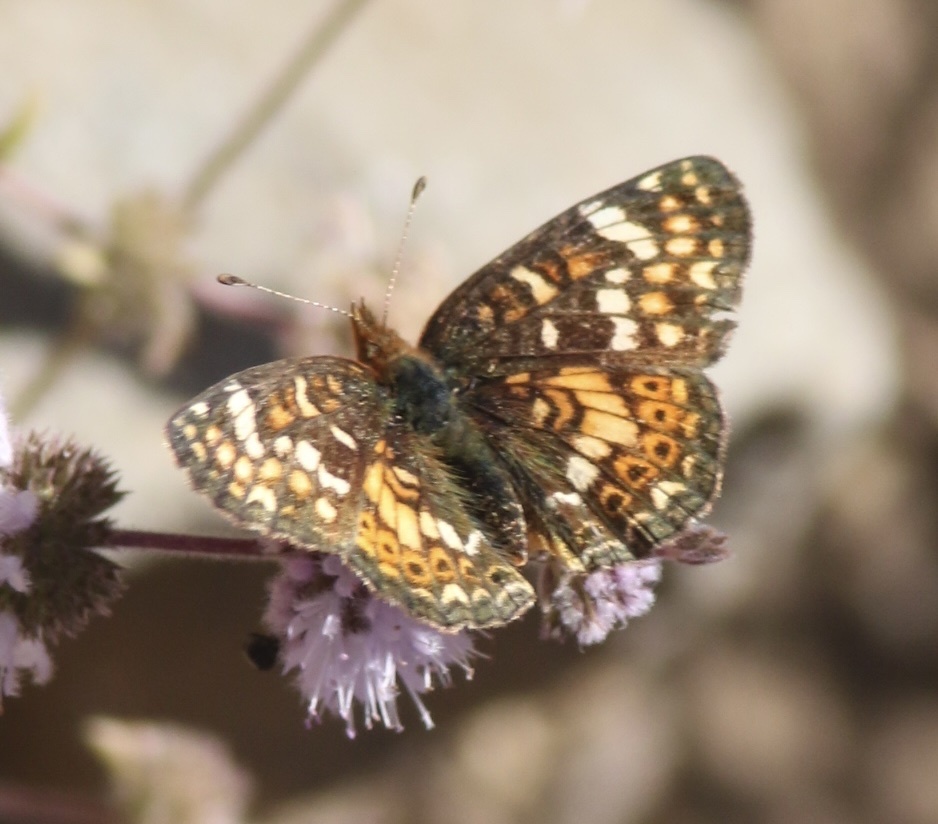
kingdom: Animalia
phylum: Arthropoda
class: Insecta
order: Lepidoptera
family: Nymphalidae
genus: Phyciodes
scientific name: Phyciodes tharos
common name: Pearl crescent
